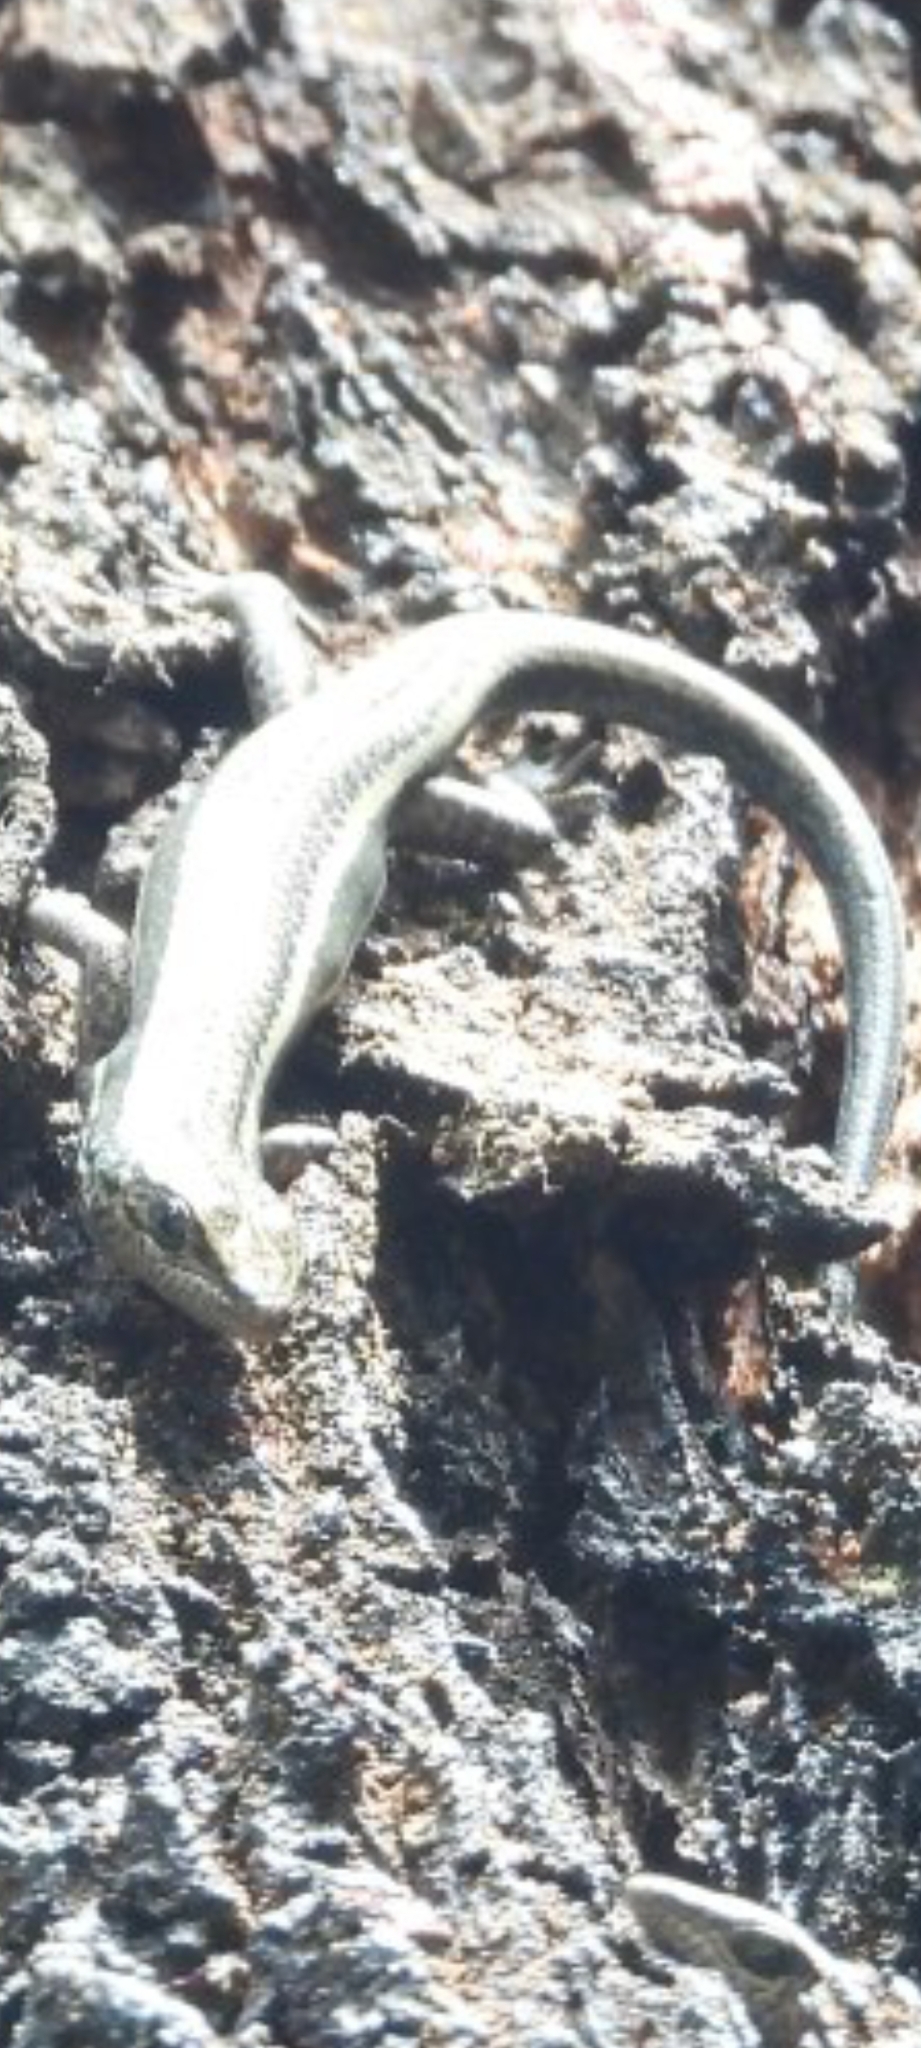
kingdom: Animalia
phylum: Chordata
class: Squamata
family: Scincidae
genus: Pseudemoia
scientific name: Pseudemoia spenceri
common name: Trunk-climbing cool-skink
